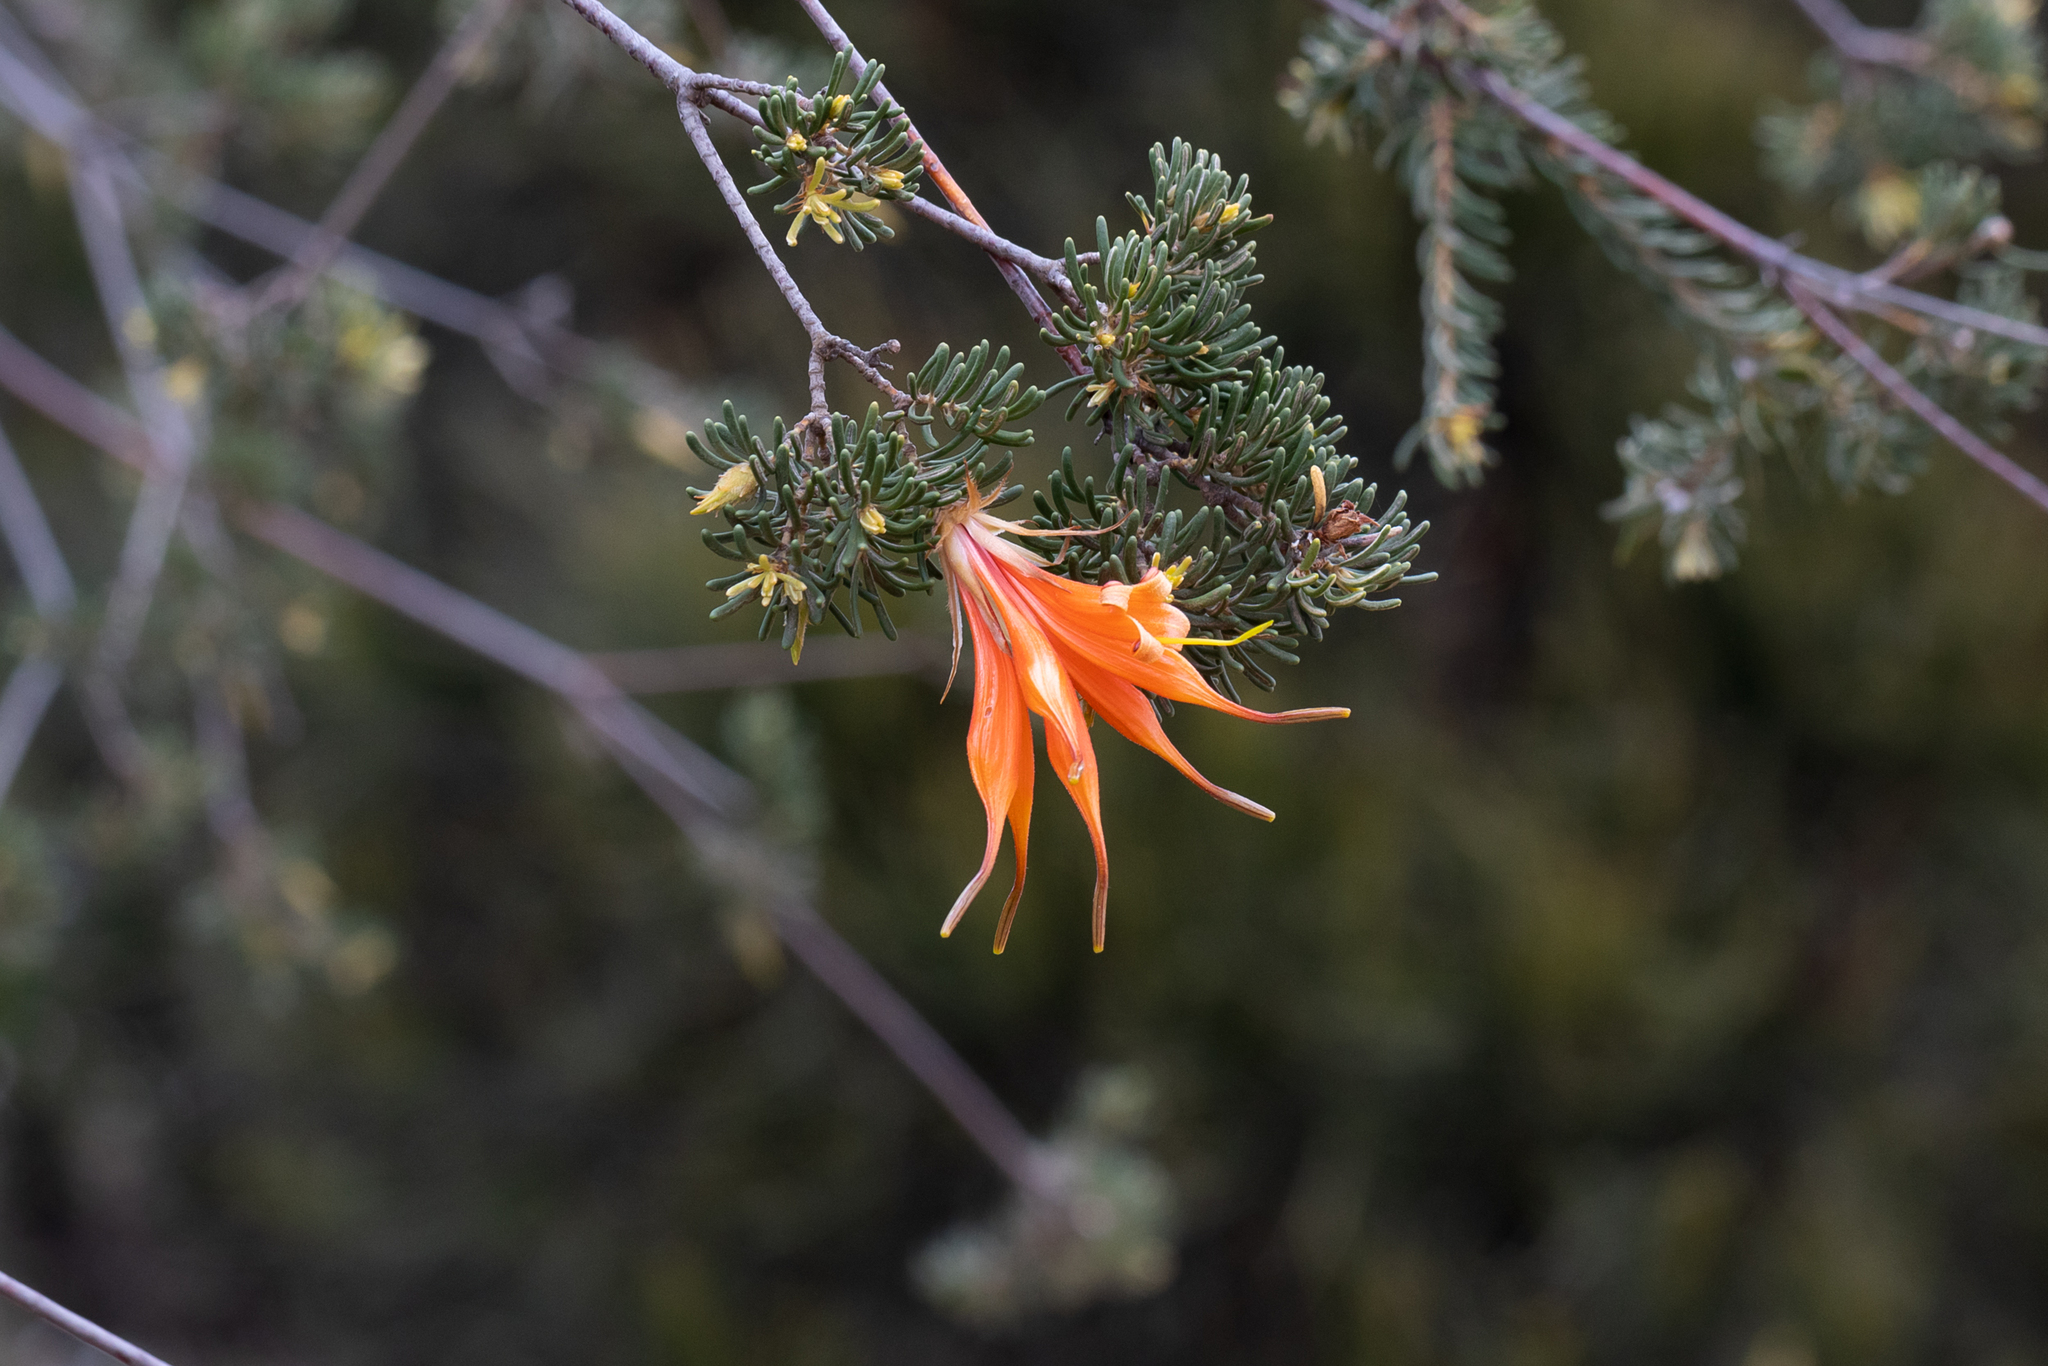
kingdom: Plantae
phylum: Tracheophyta
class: Magnoliopsida
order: Proteales
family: Proteaceae
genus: Lambertia
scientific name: Lambertia ericifolia
